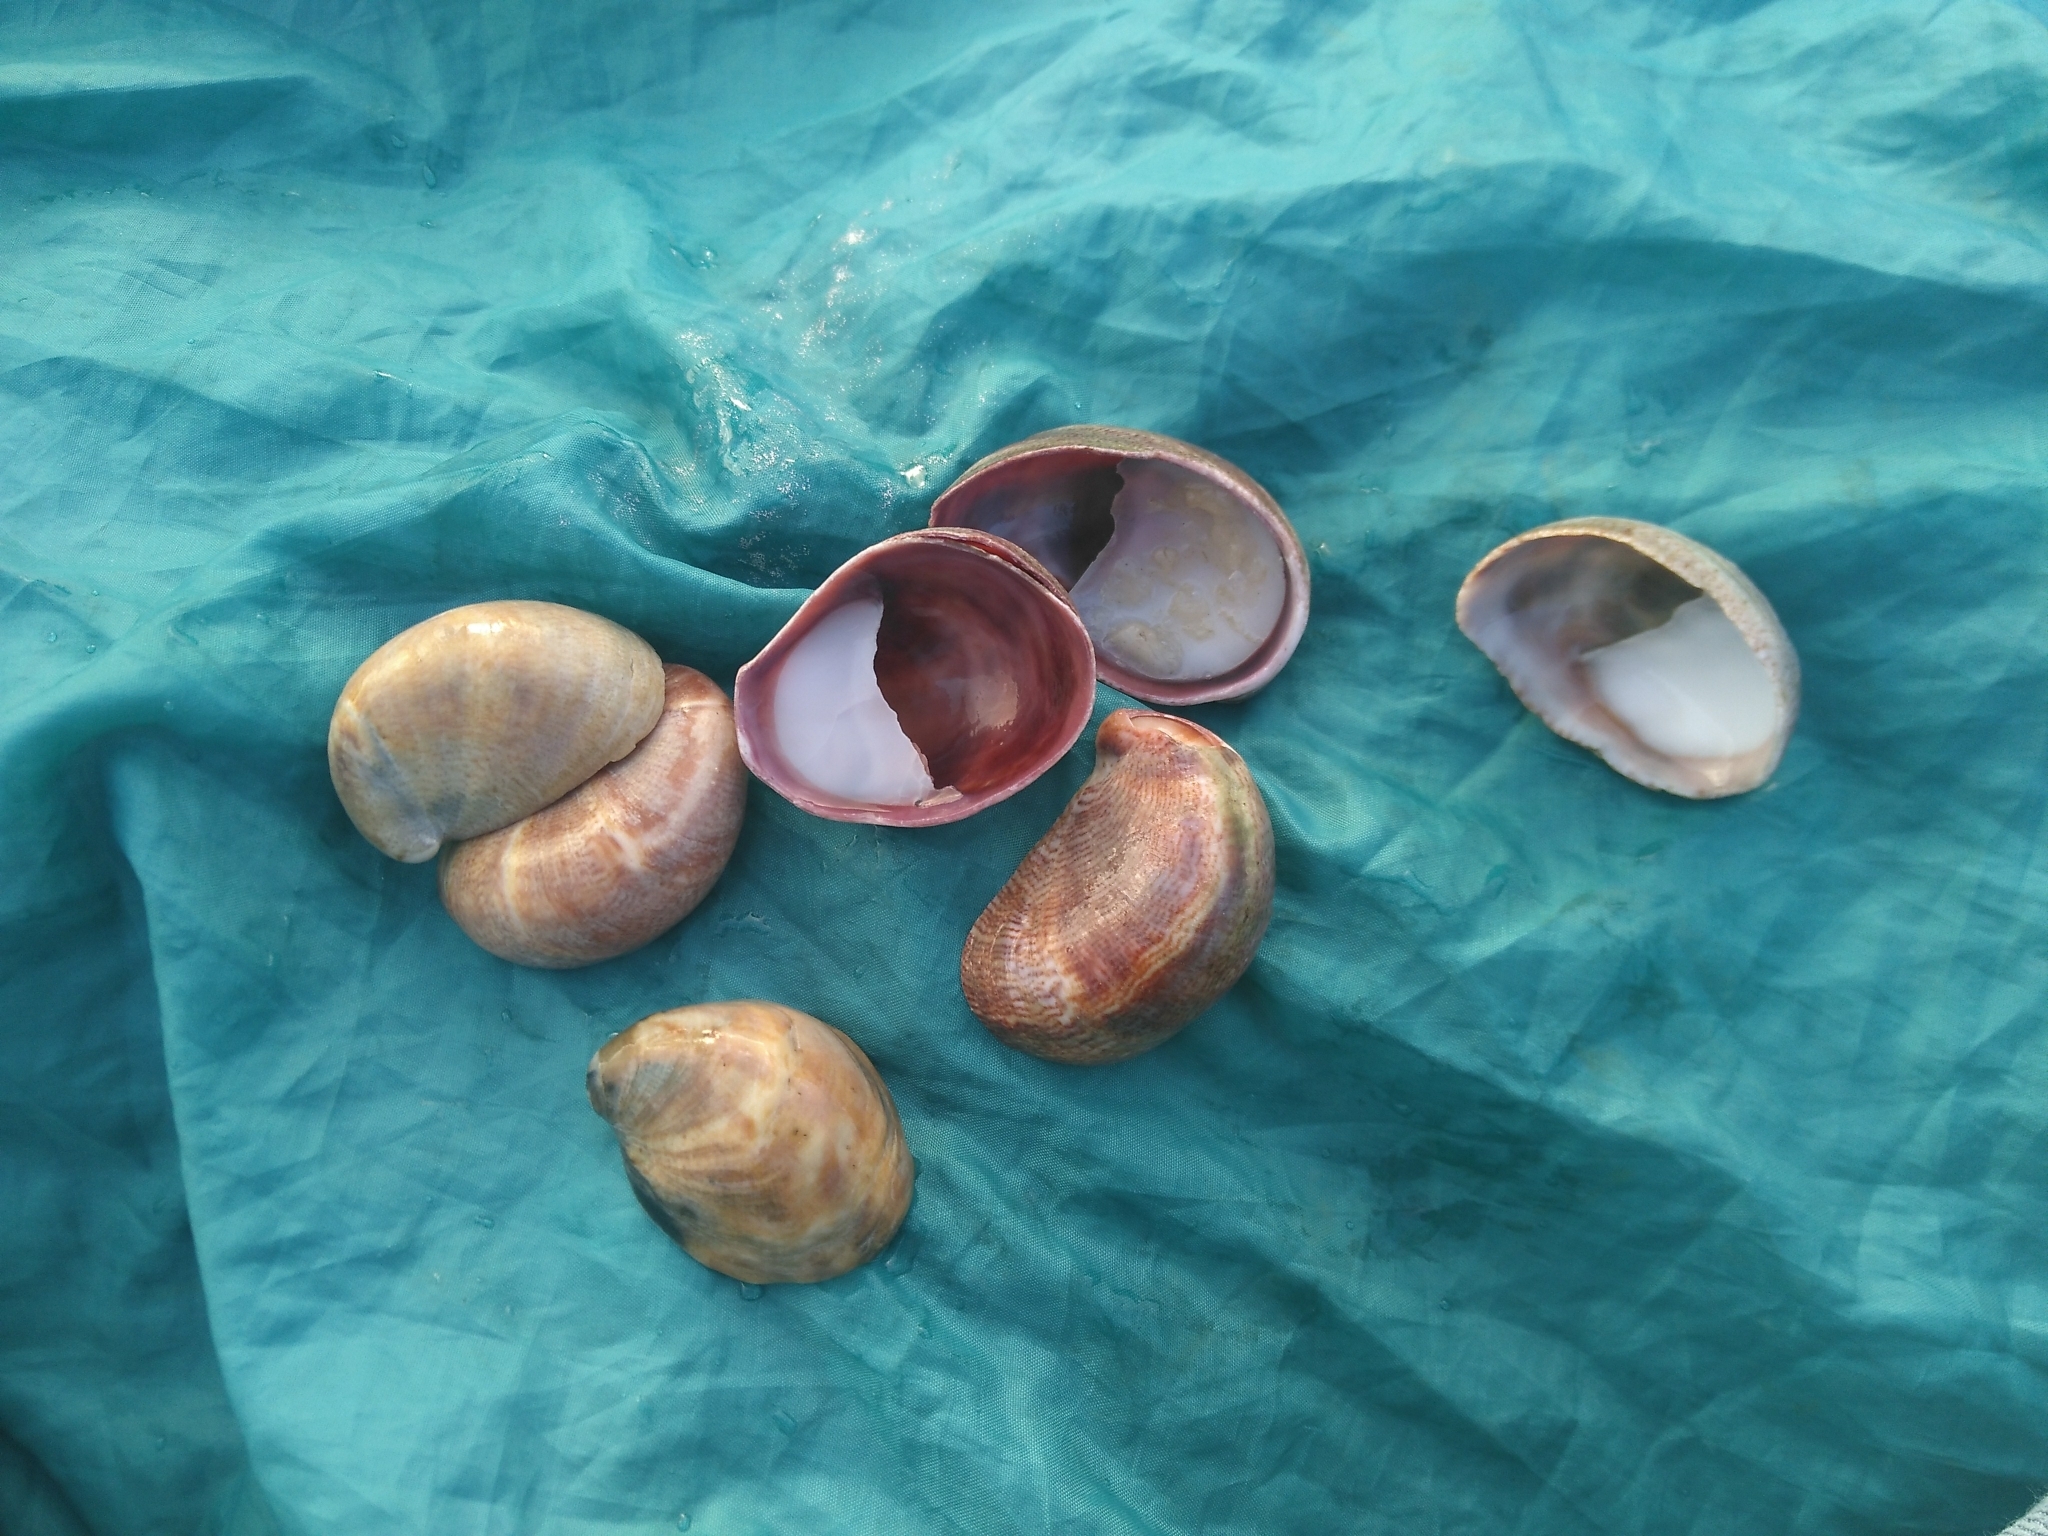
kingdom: Animalia
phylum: Mollusca
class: Gastropoda
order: Littorinimorpha
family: Calyptraeidae
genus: Crepidula
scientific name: Crepidula fornicata
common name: Slipper limpet
